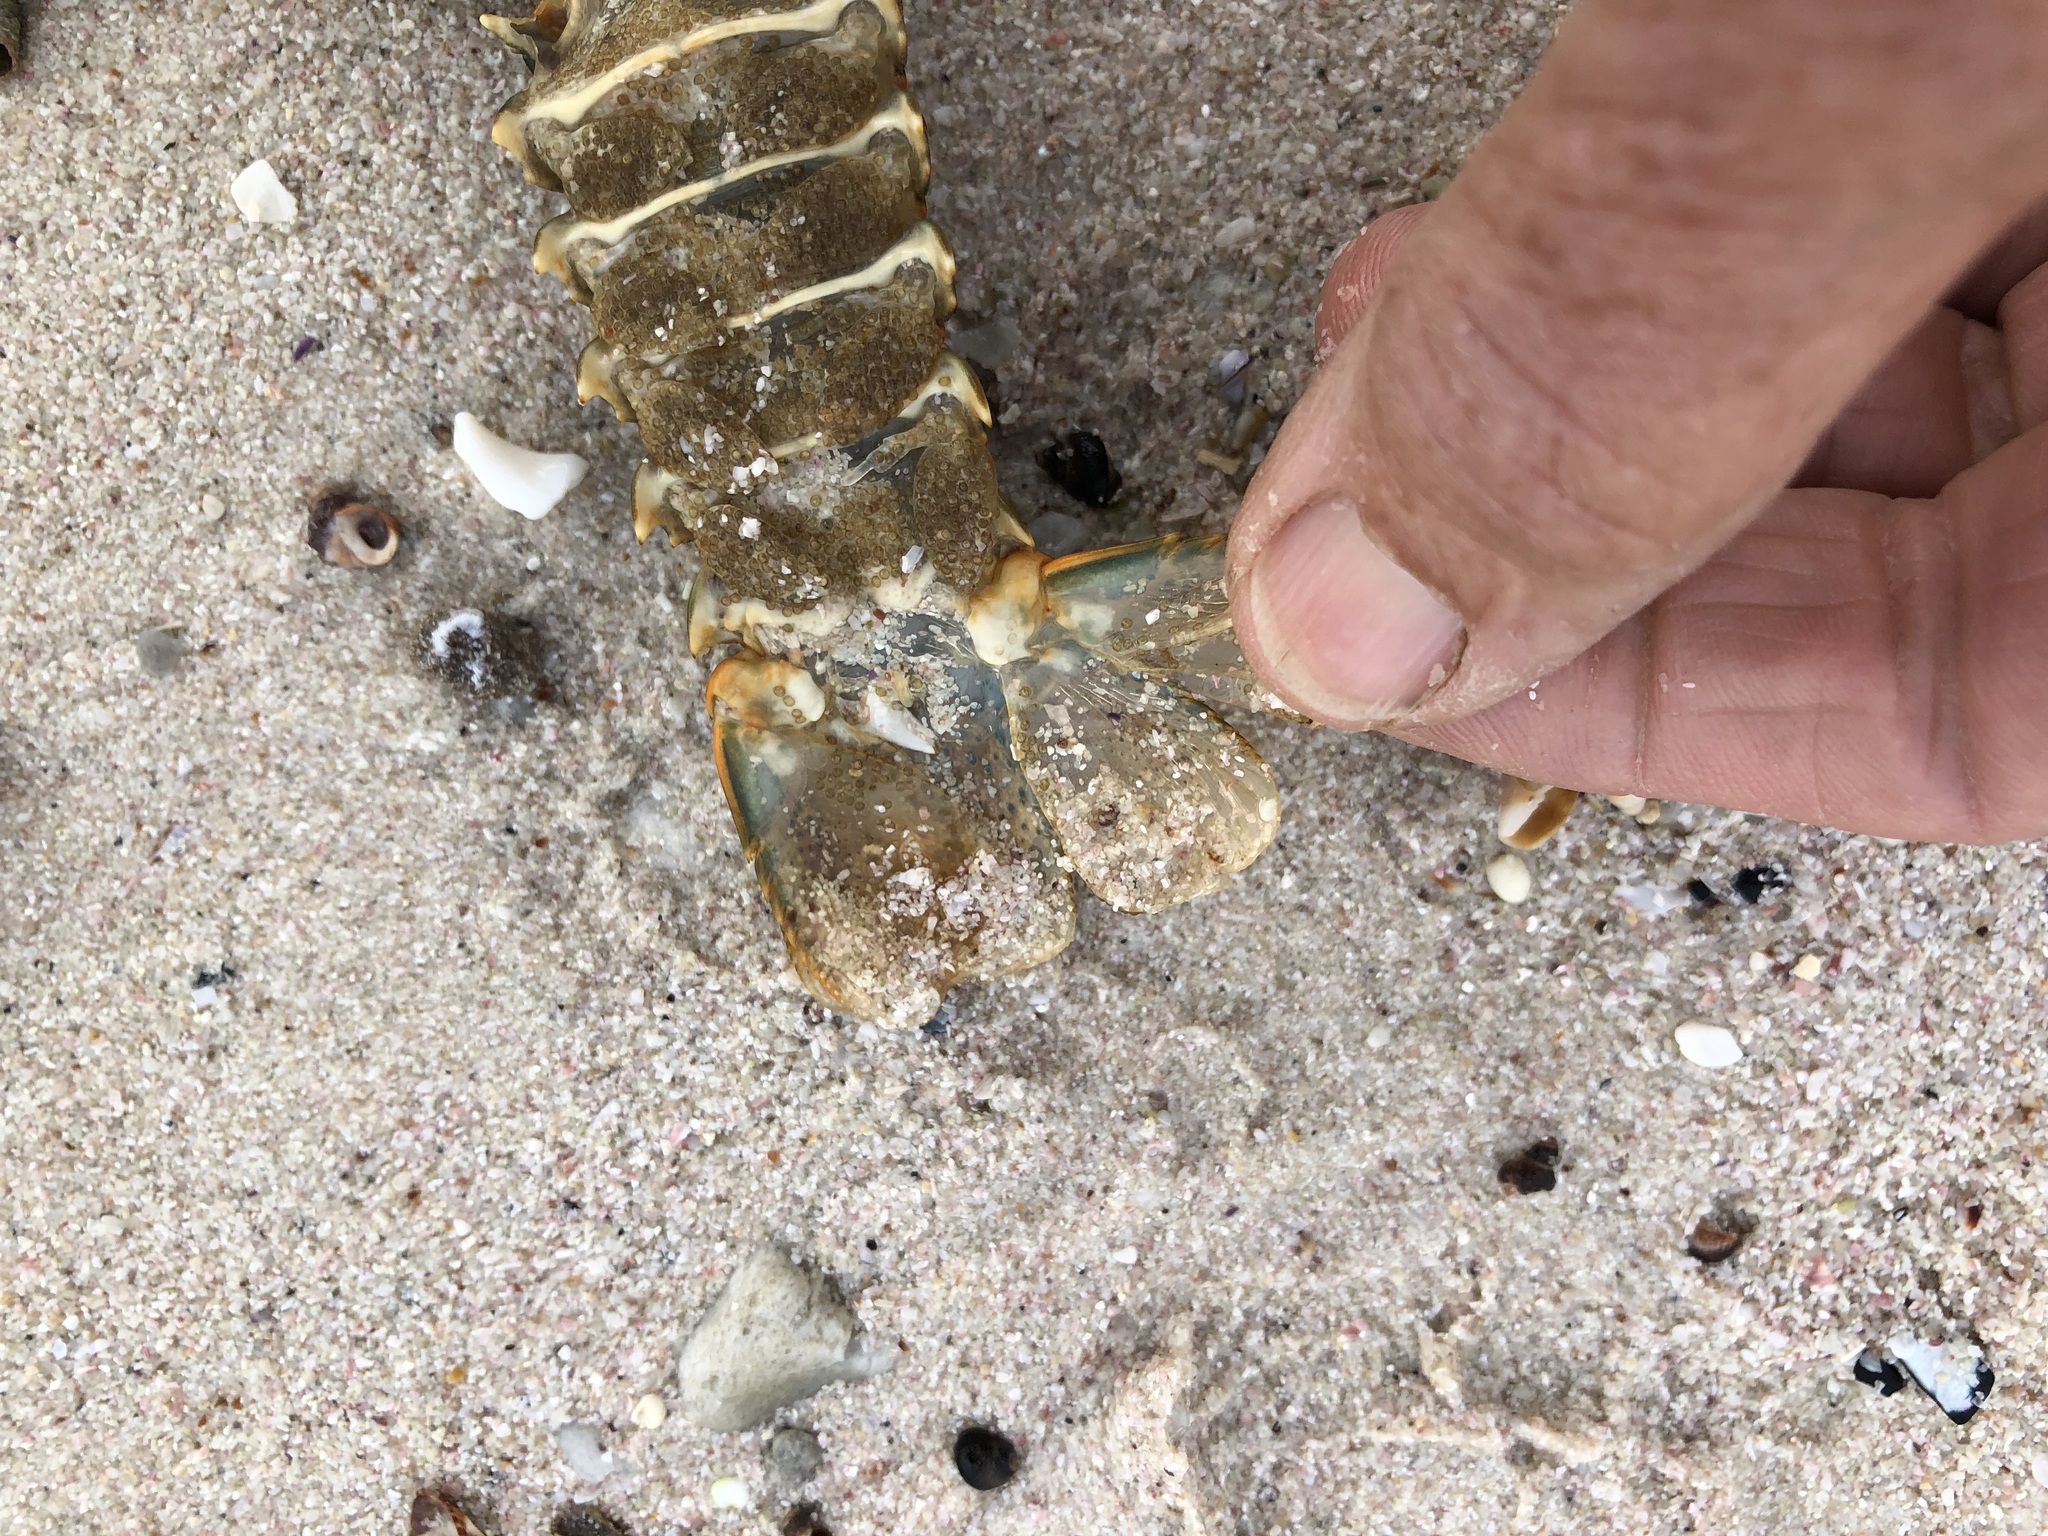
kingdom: Animalia
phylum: Arthropoda
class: Malacostraca
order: Decapoda
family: Palinuridae
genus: Jasus
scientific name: Jasus lalandii
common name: Cape rock lobster
